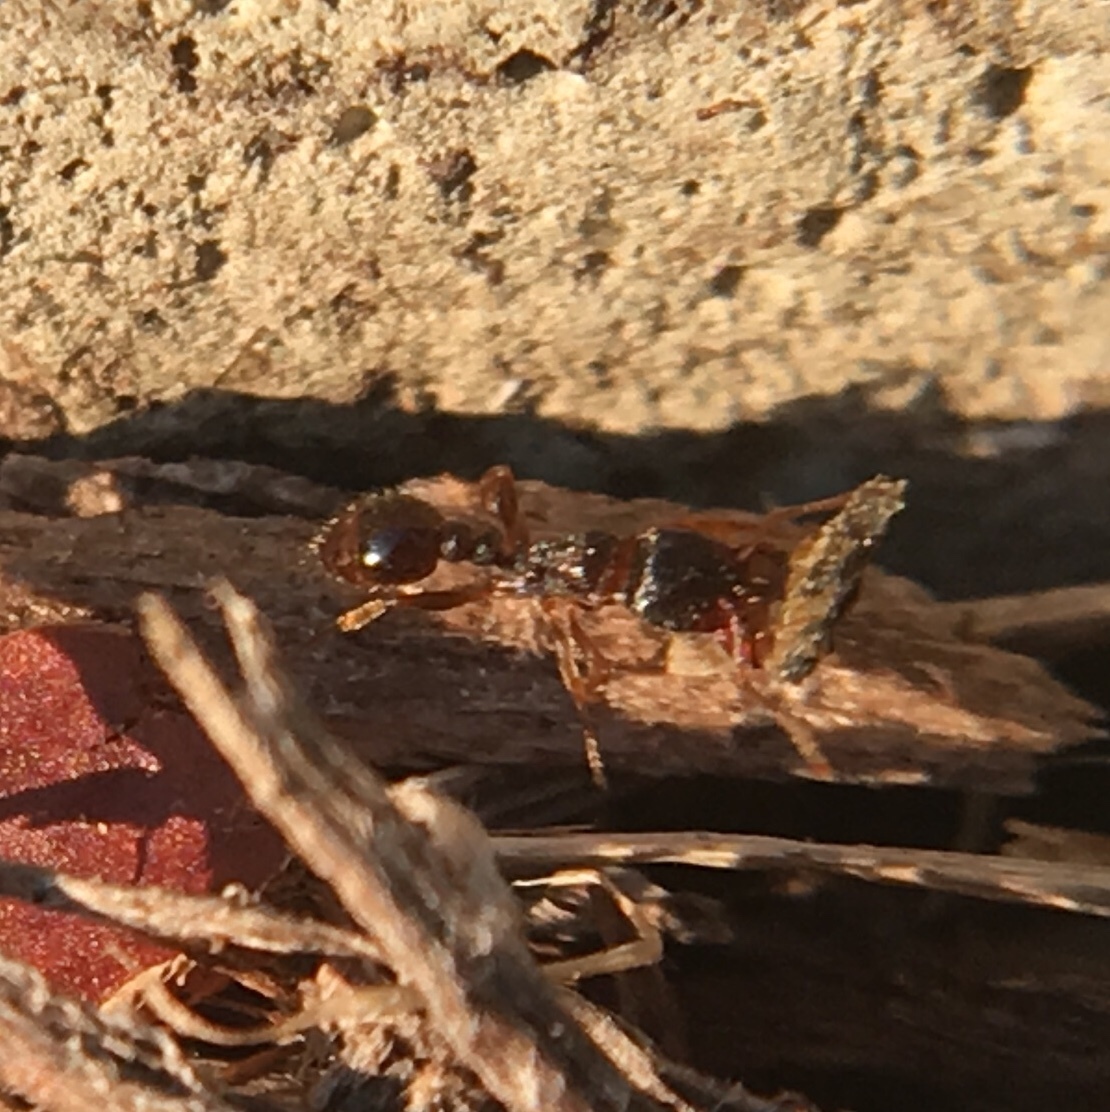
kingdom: Animalia
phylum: Arthropoda
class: Insecta
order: Hymenoptera
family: Formicidae
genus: Tetramorium
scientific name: Tetramorium immigrans
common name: Pavement ant
